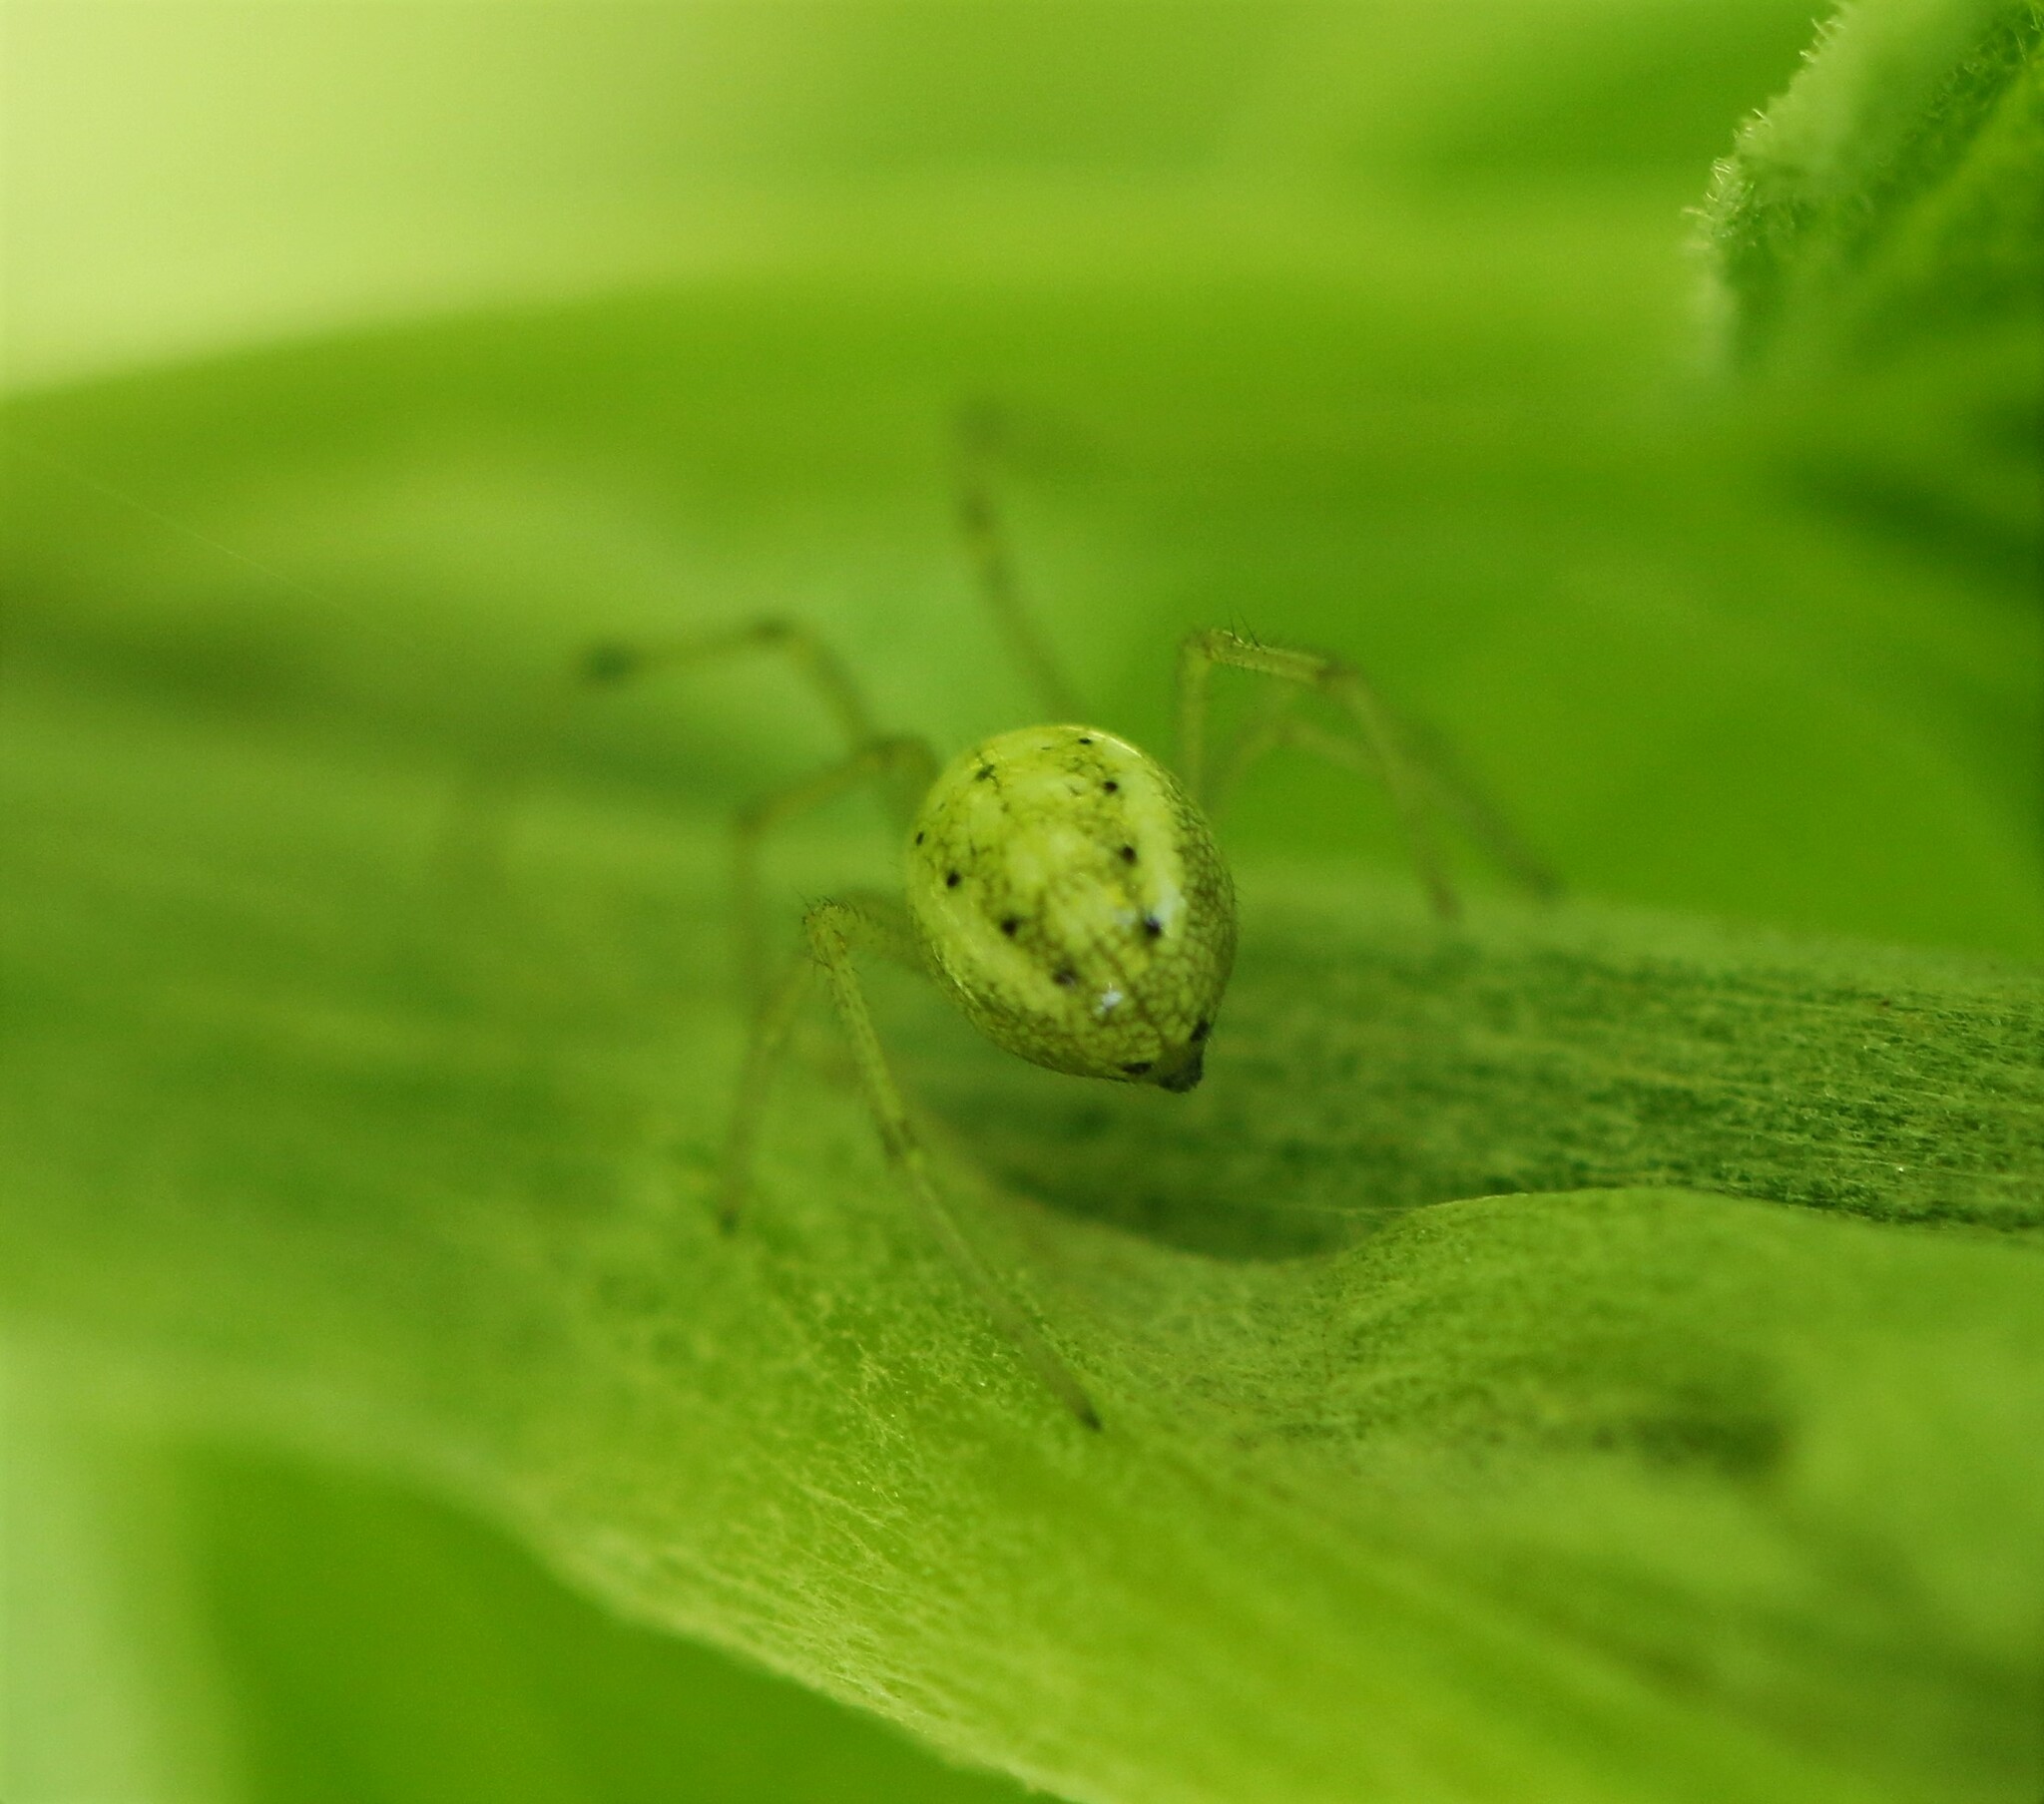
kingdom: Animalia
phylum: Arthropoda
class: Arachnida
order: Araneae
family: Theridiidae
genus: Enoplognatha
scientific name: Enoplognatha ovata
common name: Common candy-striped spider
